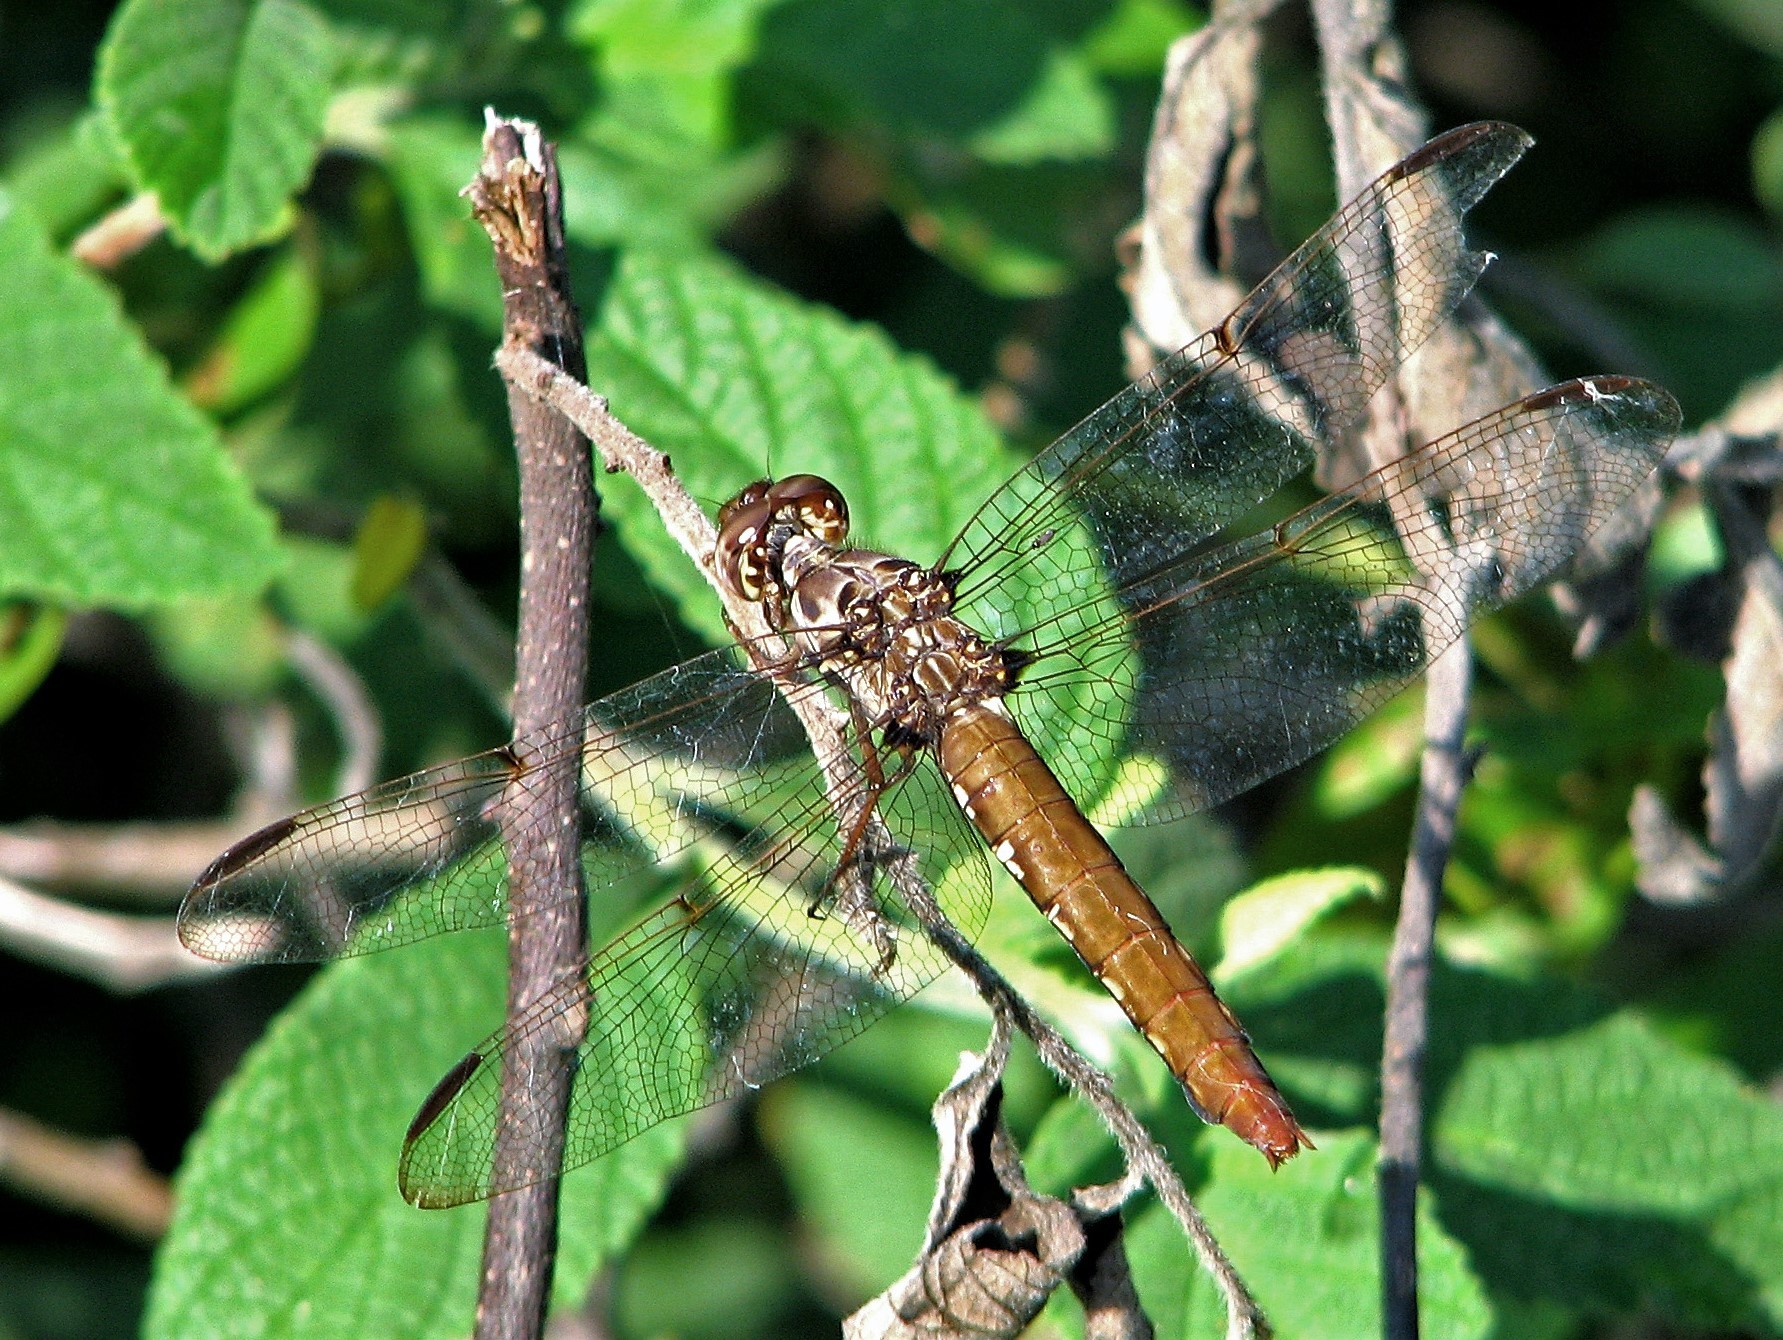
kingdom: Animalia
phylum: Arthropoda
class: Insecta
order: Odonata
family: Libellulidae
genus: Orthemis
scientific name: Orthemis nodiplaga
